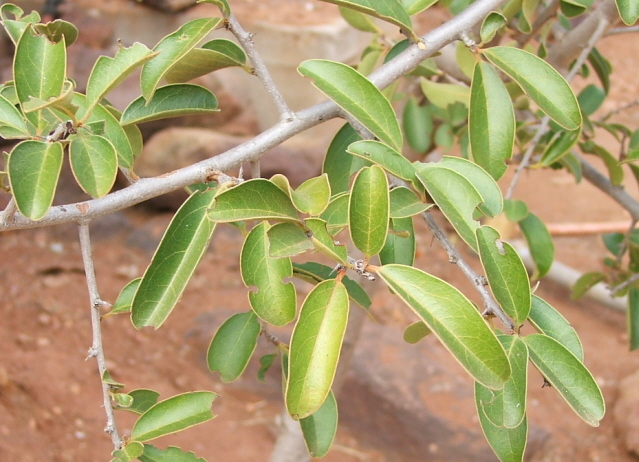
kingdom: Plantae
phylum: Tracheophyta
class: Magnoliopsida
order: Santalales
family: Ximeniaceae
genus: Ximenia
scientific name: Ximenia caffra
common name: Large sourplum
